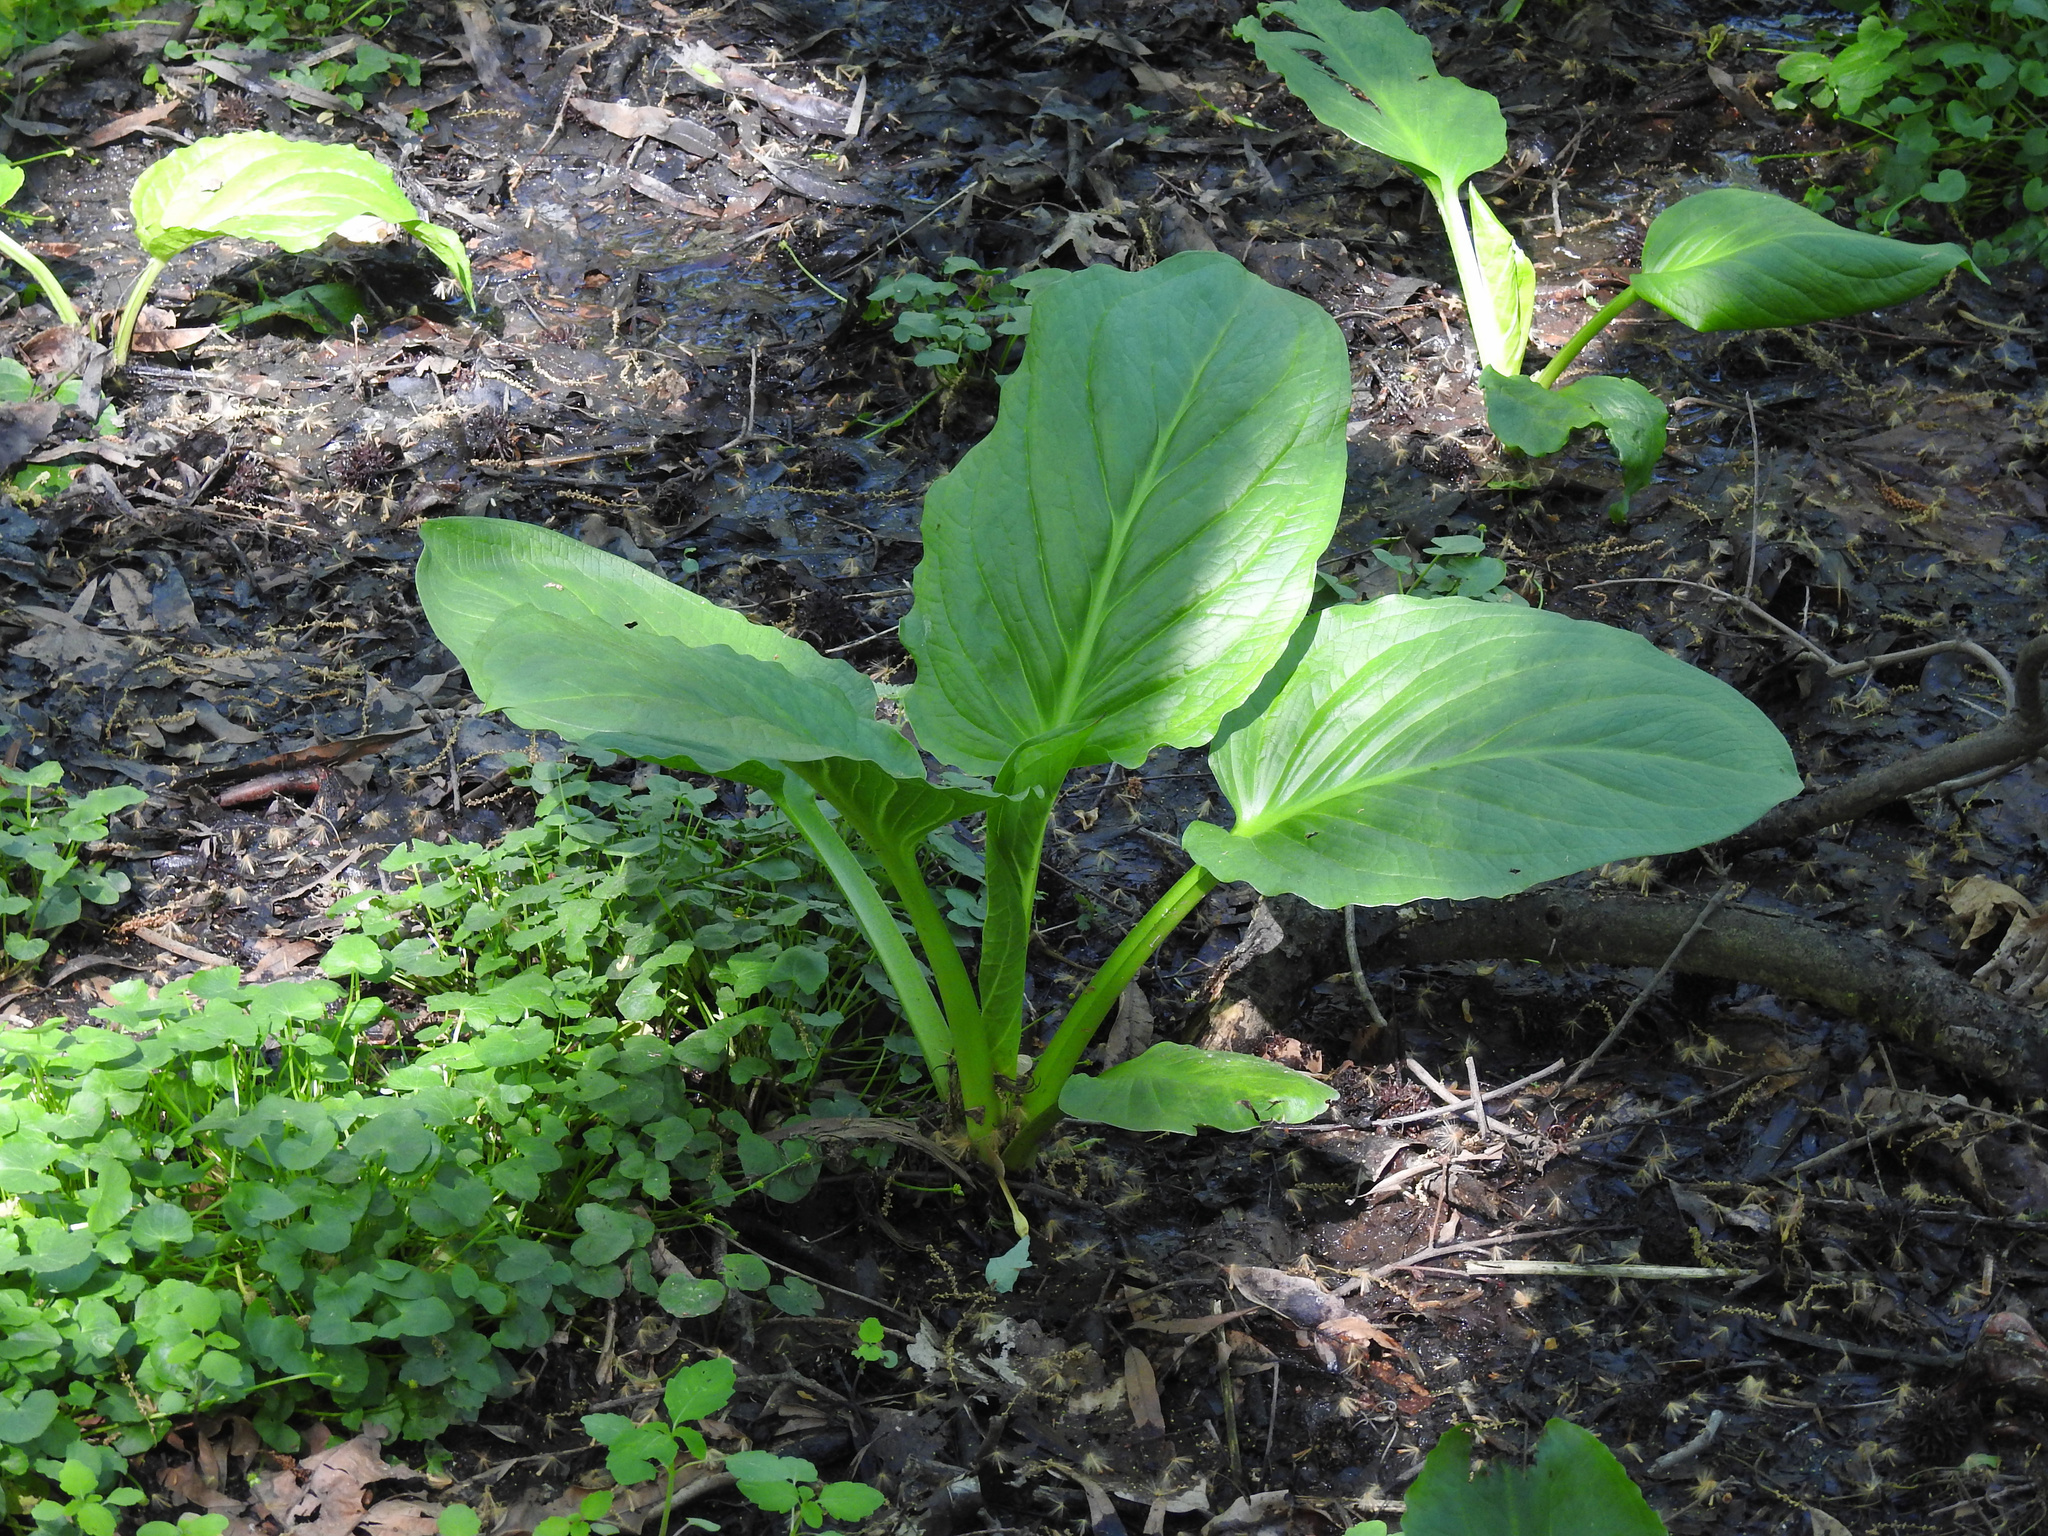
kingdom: Plantae
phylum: Tracheophyta
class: Liliopsida
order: Alismatales
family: Araceae
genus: Symplocarpus
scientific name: Symplocarpus foetidus
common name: Eastern skunk cabbage
